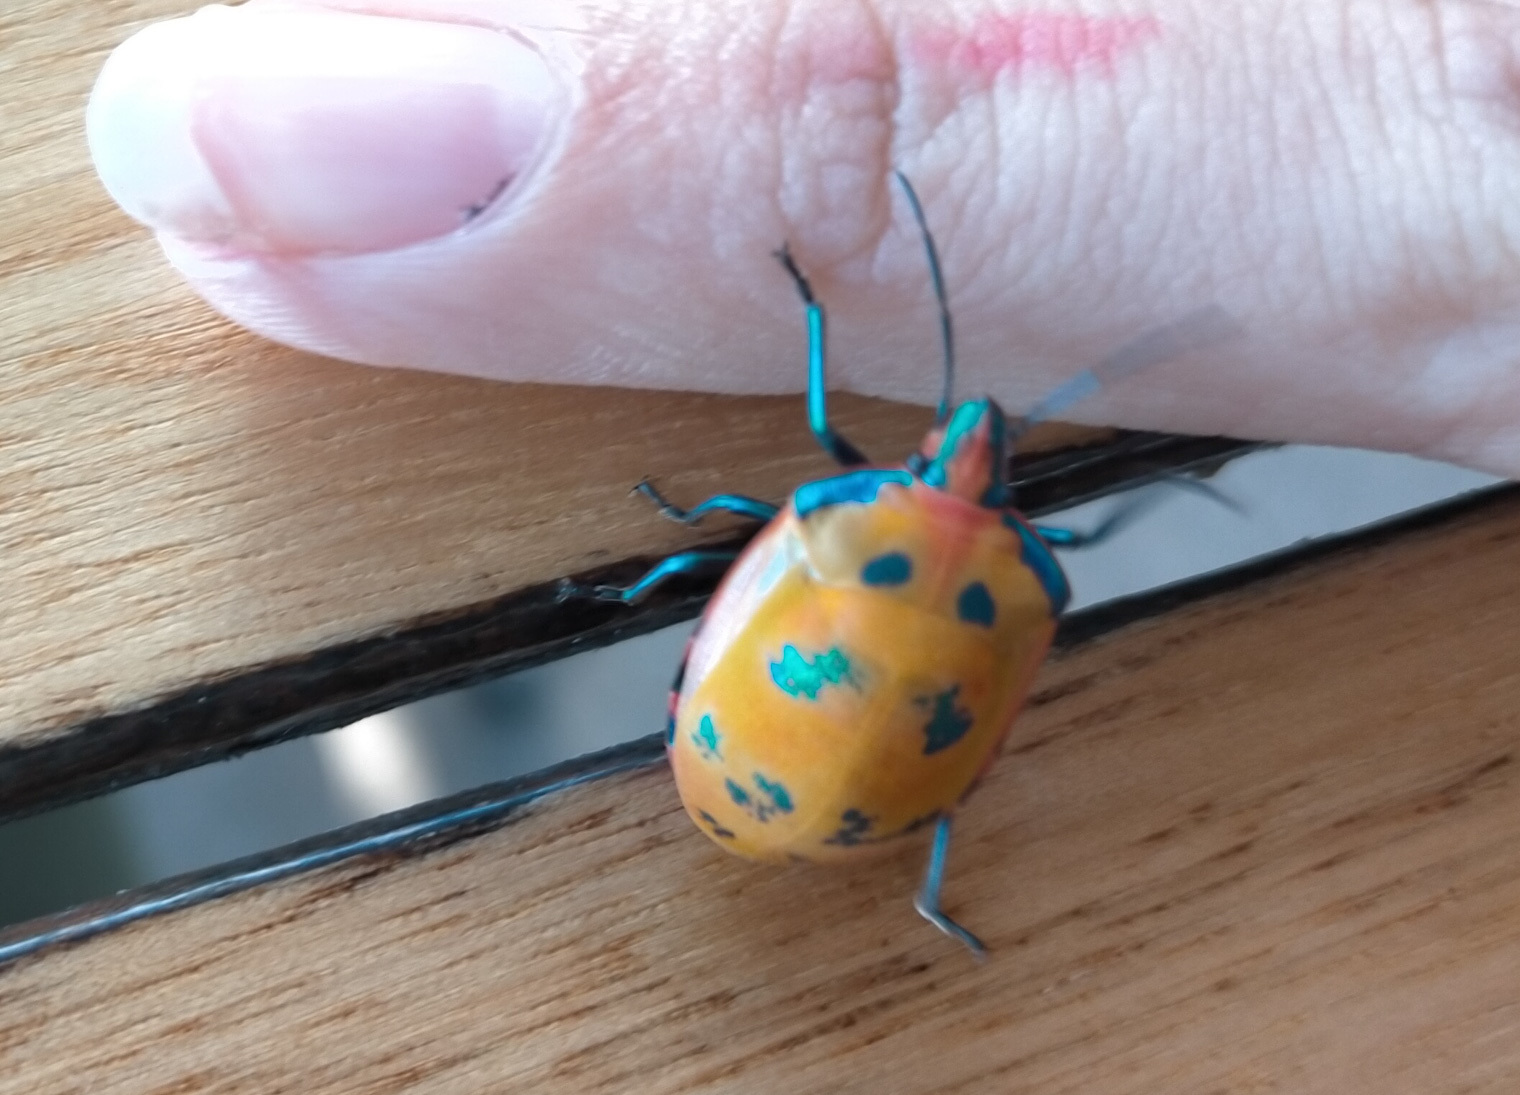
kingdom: Animalia
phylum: Arthropoda
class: Insecta
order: Hemiptera
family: Scutelleridae
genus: Tectocoris
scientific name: Tectocoris diophthalmus
